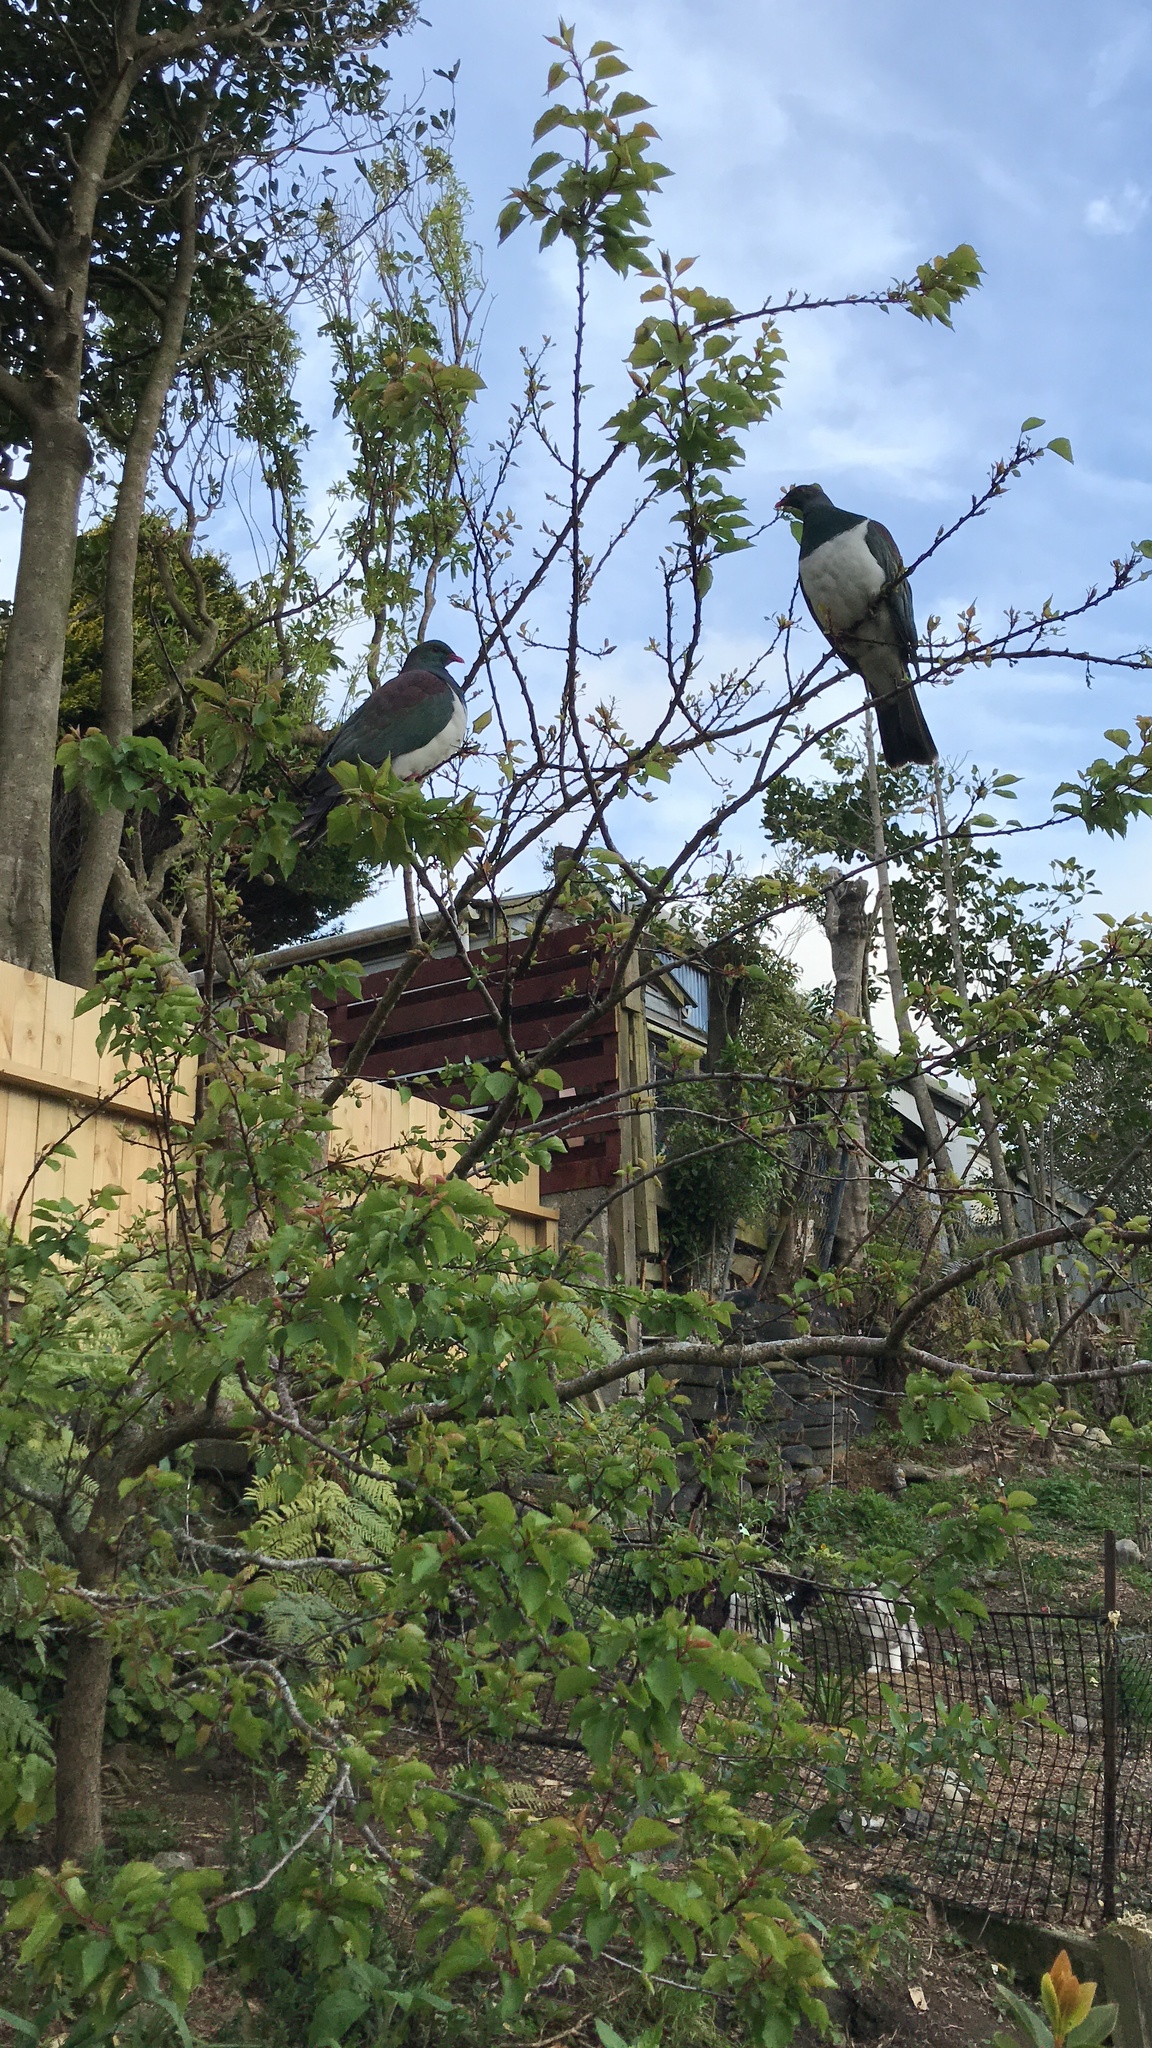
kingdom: Animalia
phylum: Chordata
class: Aves
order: Columbiformes
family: Columbidae
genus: Hemiphaga
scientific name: Hemiphaga novaeseelandiae
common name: New zealand pigeon
